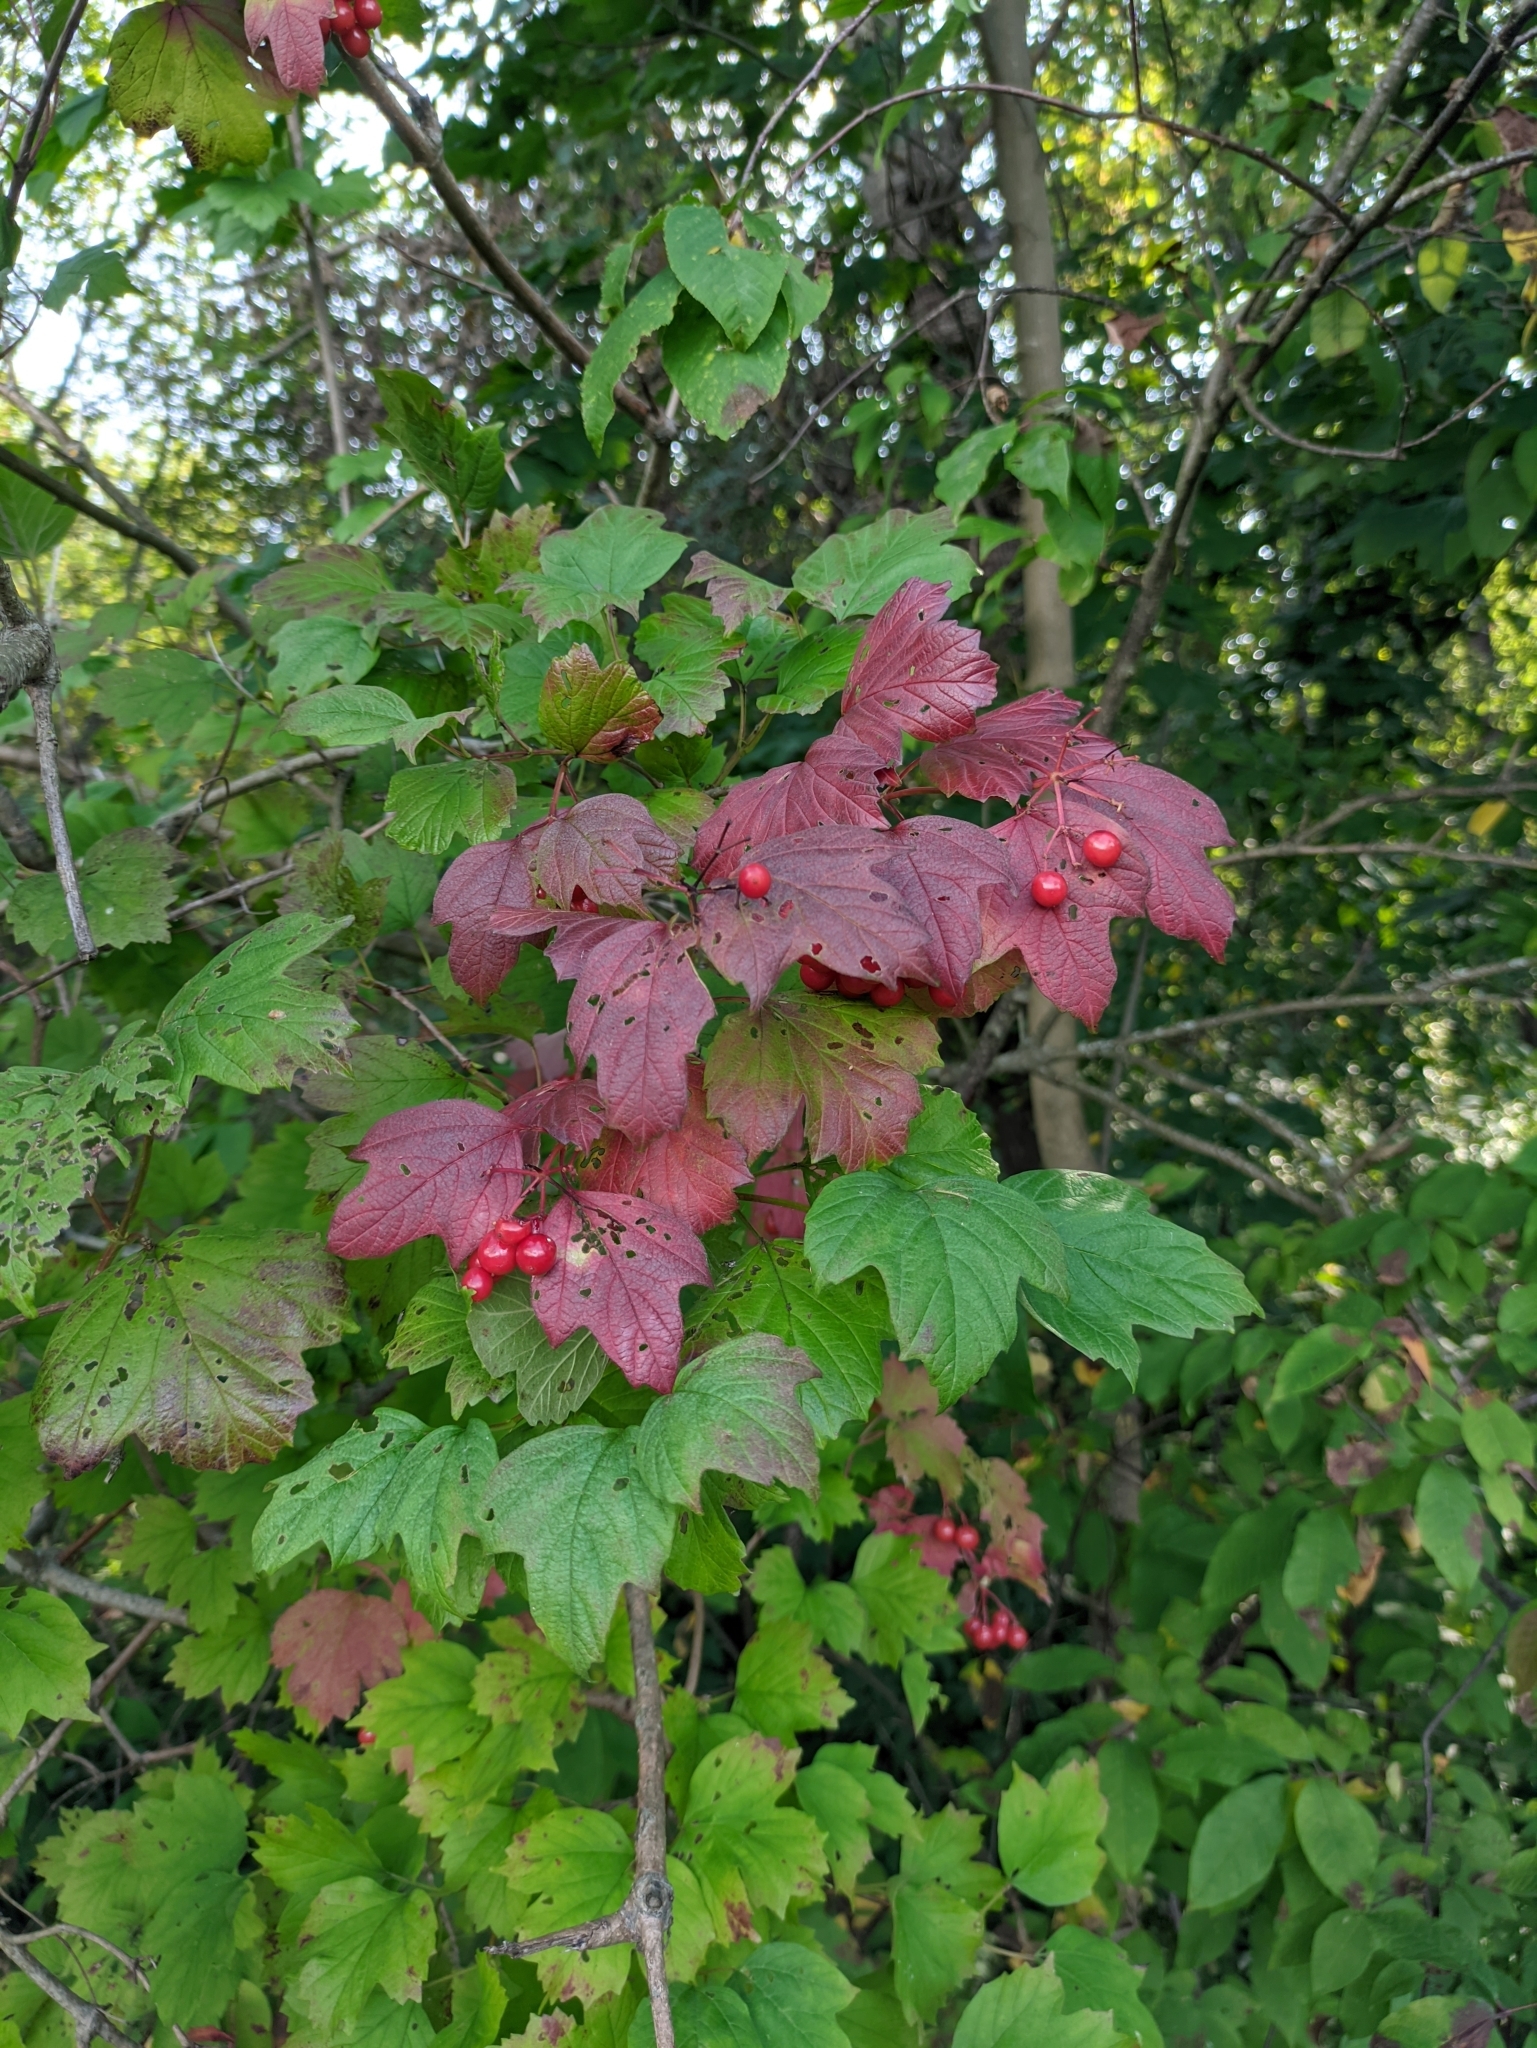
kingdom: Plantae
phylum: Tracheophyta
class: Magnoliopsida
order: Dipsacales
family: Viburnaceae
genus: Viburnum
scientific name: Viburnum opulus
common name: Guelder-rose
